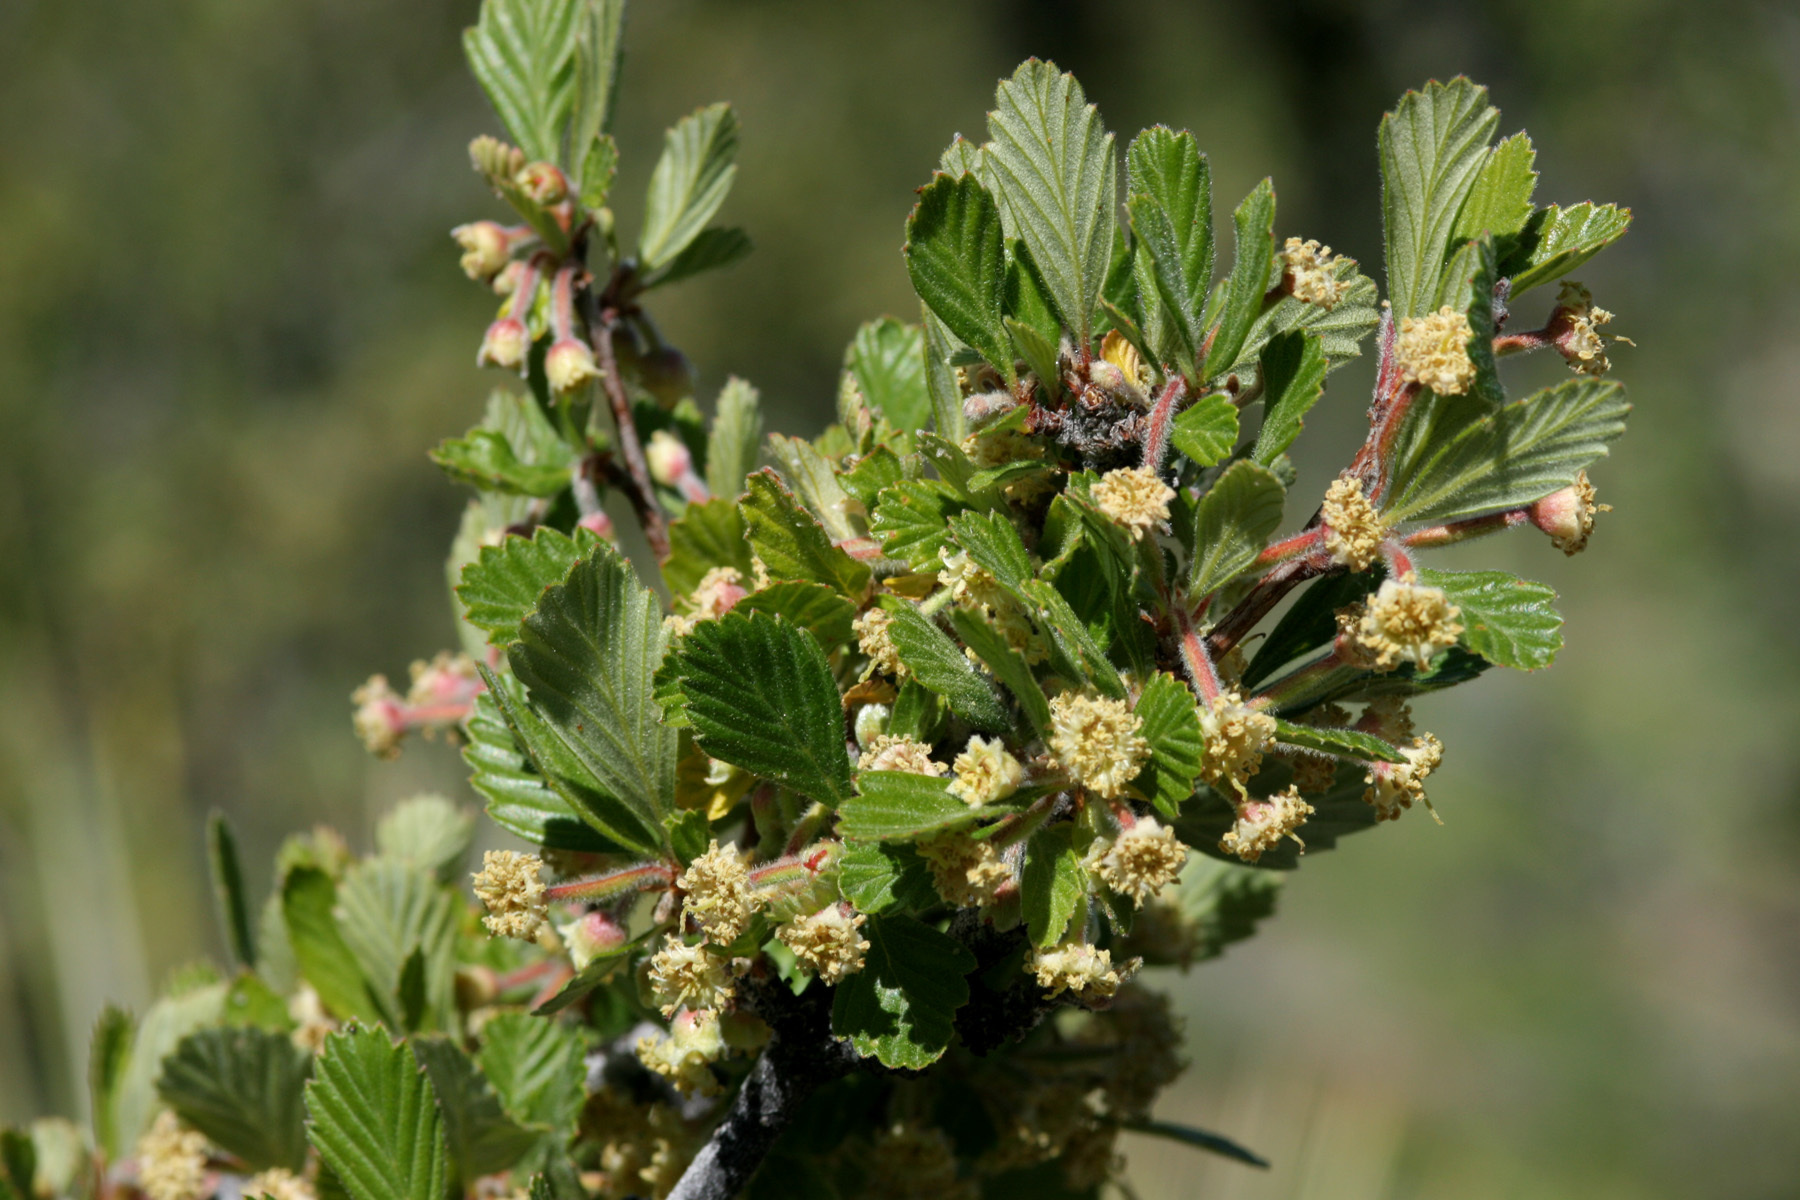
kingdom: Plantae
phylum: Tracheophyta
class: Magnoliopsida
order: Rosales
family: Rosaceae
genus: Cercocarpus
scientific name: Cercocarpus montanus
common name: Alder-leaf cercocarpus
